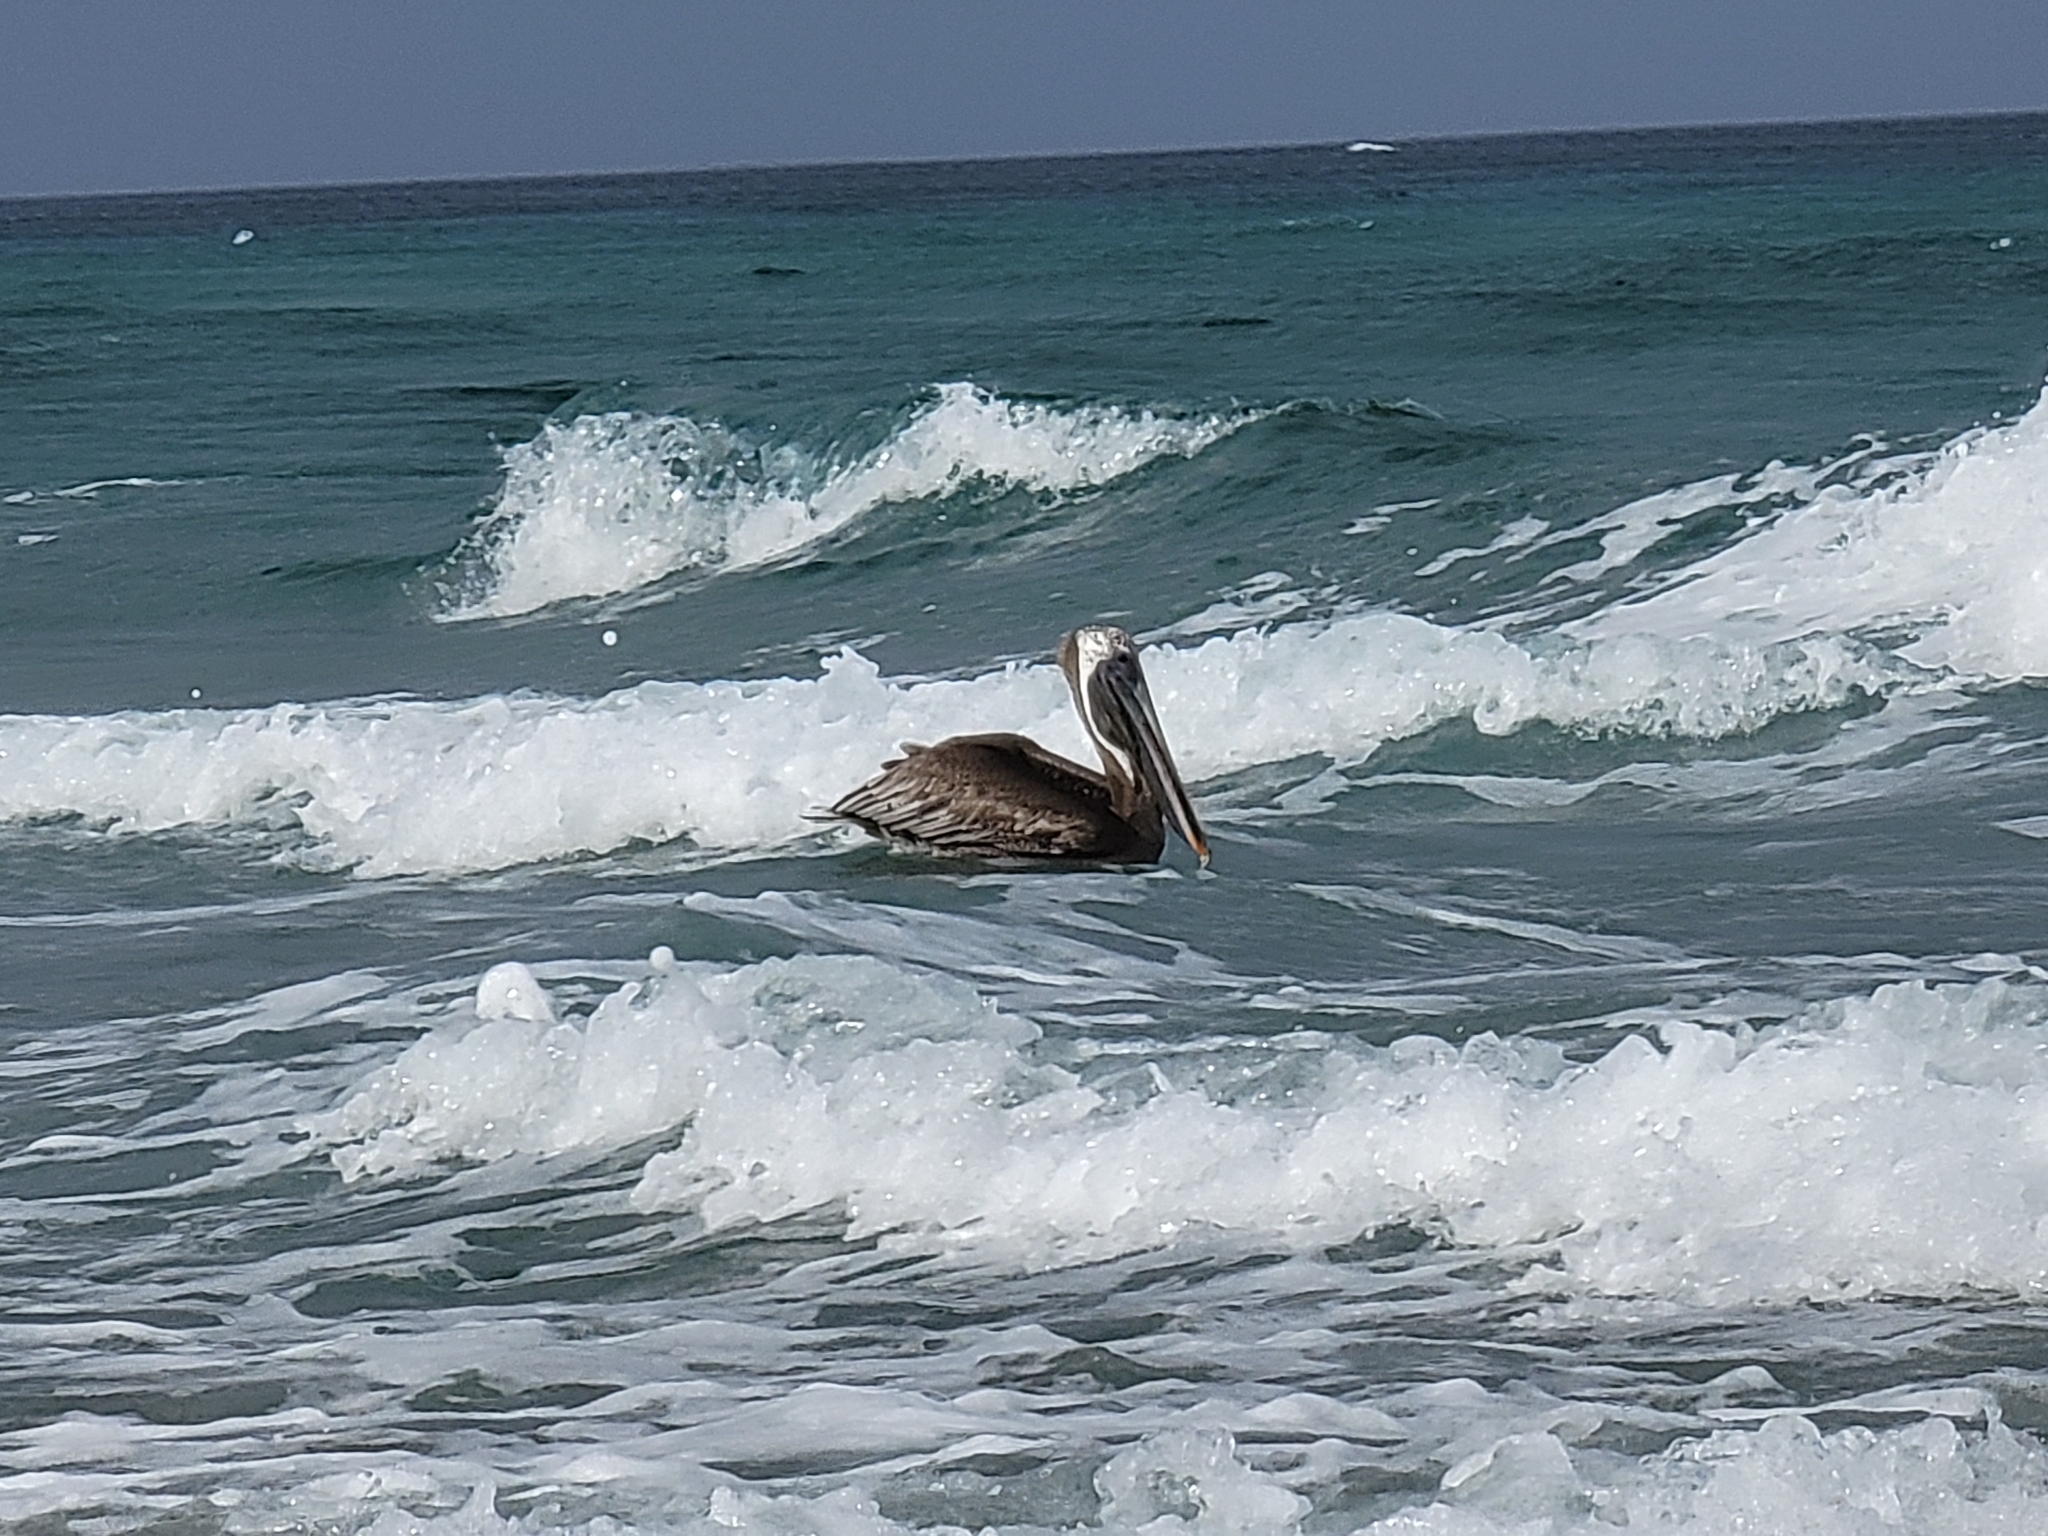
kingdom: Animalia
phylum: Chordata
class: Aves
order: Pelecaniformes
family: Pelecanidae
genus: Pelecanus
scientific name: Pelecanus occidentalis
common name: Brown pelican
